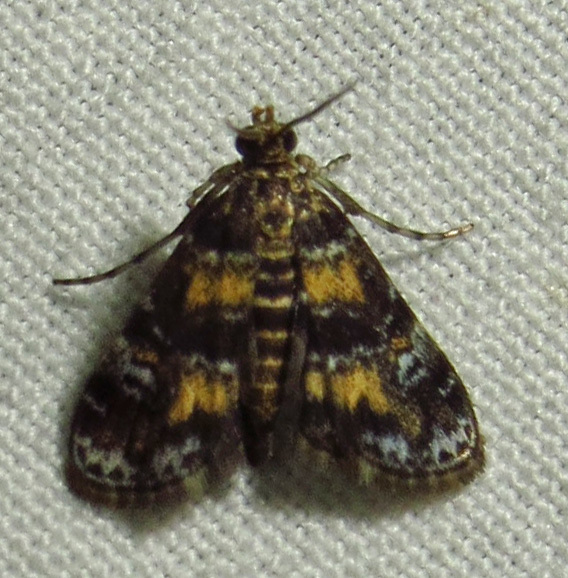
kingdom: Animalia
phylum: Arthropoda
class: Insecta
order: Lepidoptera
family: Crambidae
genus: Elophila
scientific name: Elophila obliteralis
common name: Waterlily leafcutter moth
